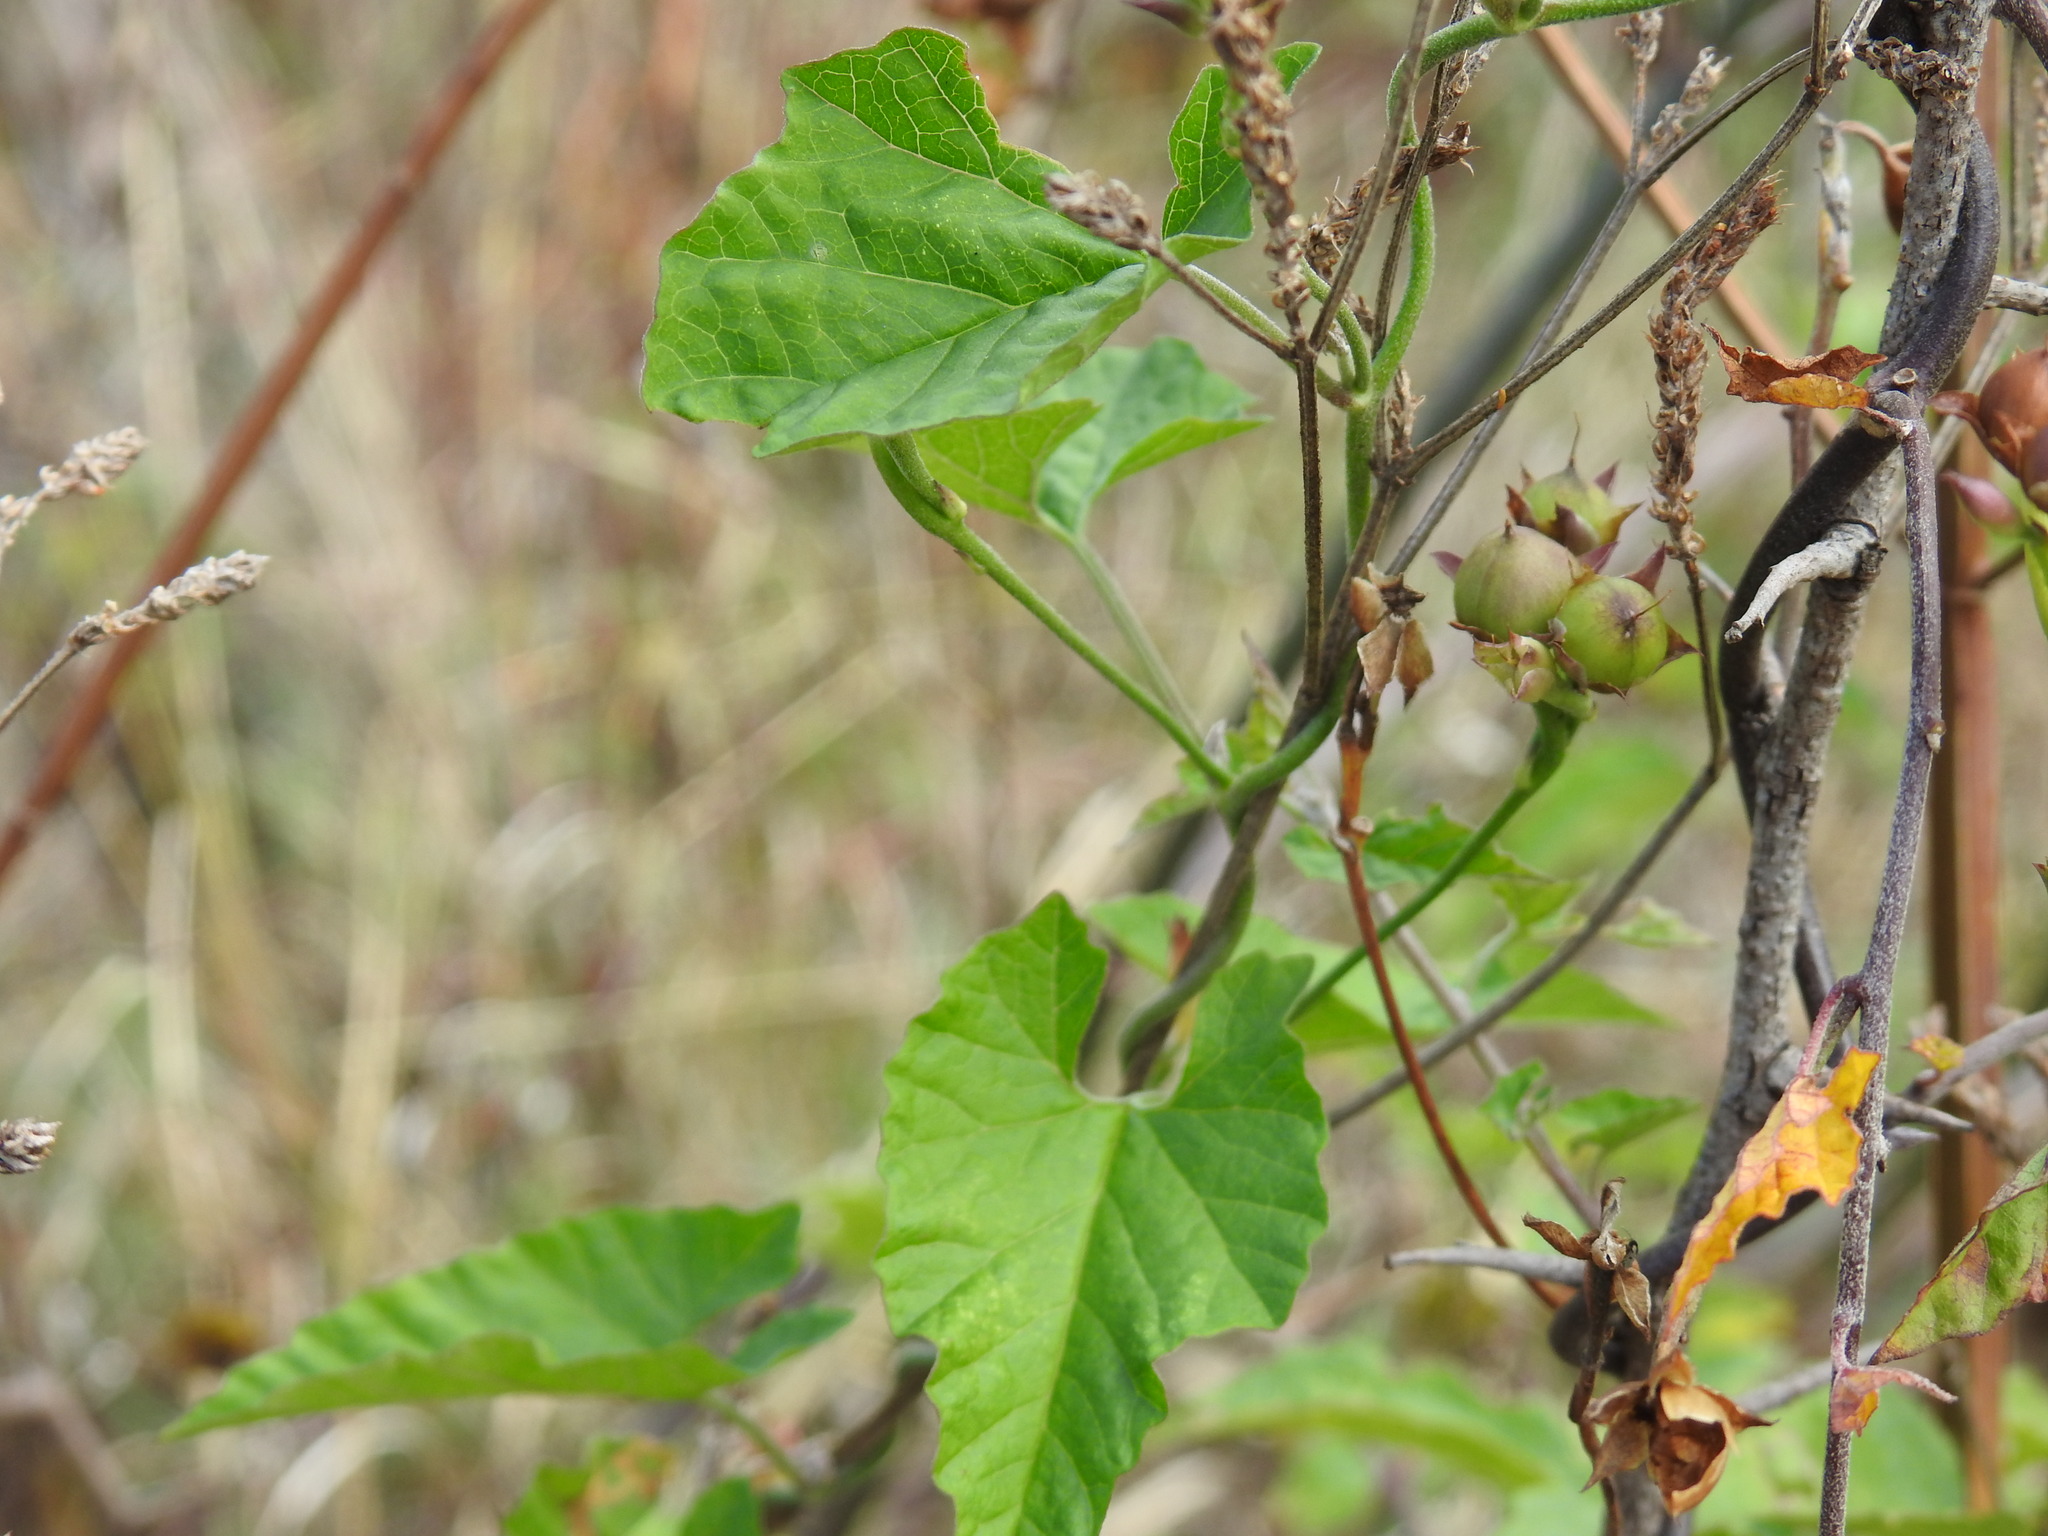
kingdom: Plantae
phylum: Tracheophyta
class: Magnoliopsida
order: Solanales
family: Convolvulaceae
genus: Convolvulus
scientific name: Convolvulus sagittatus
